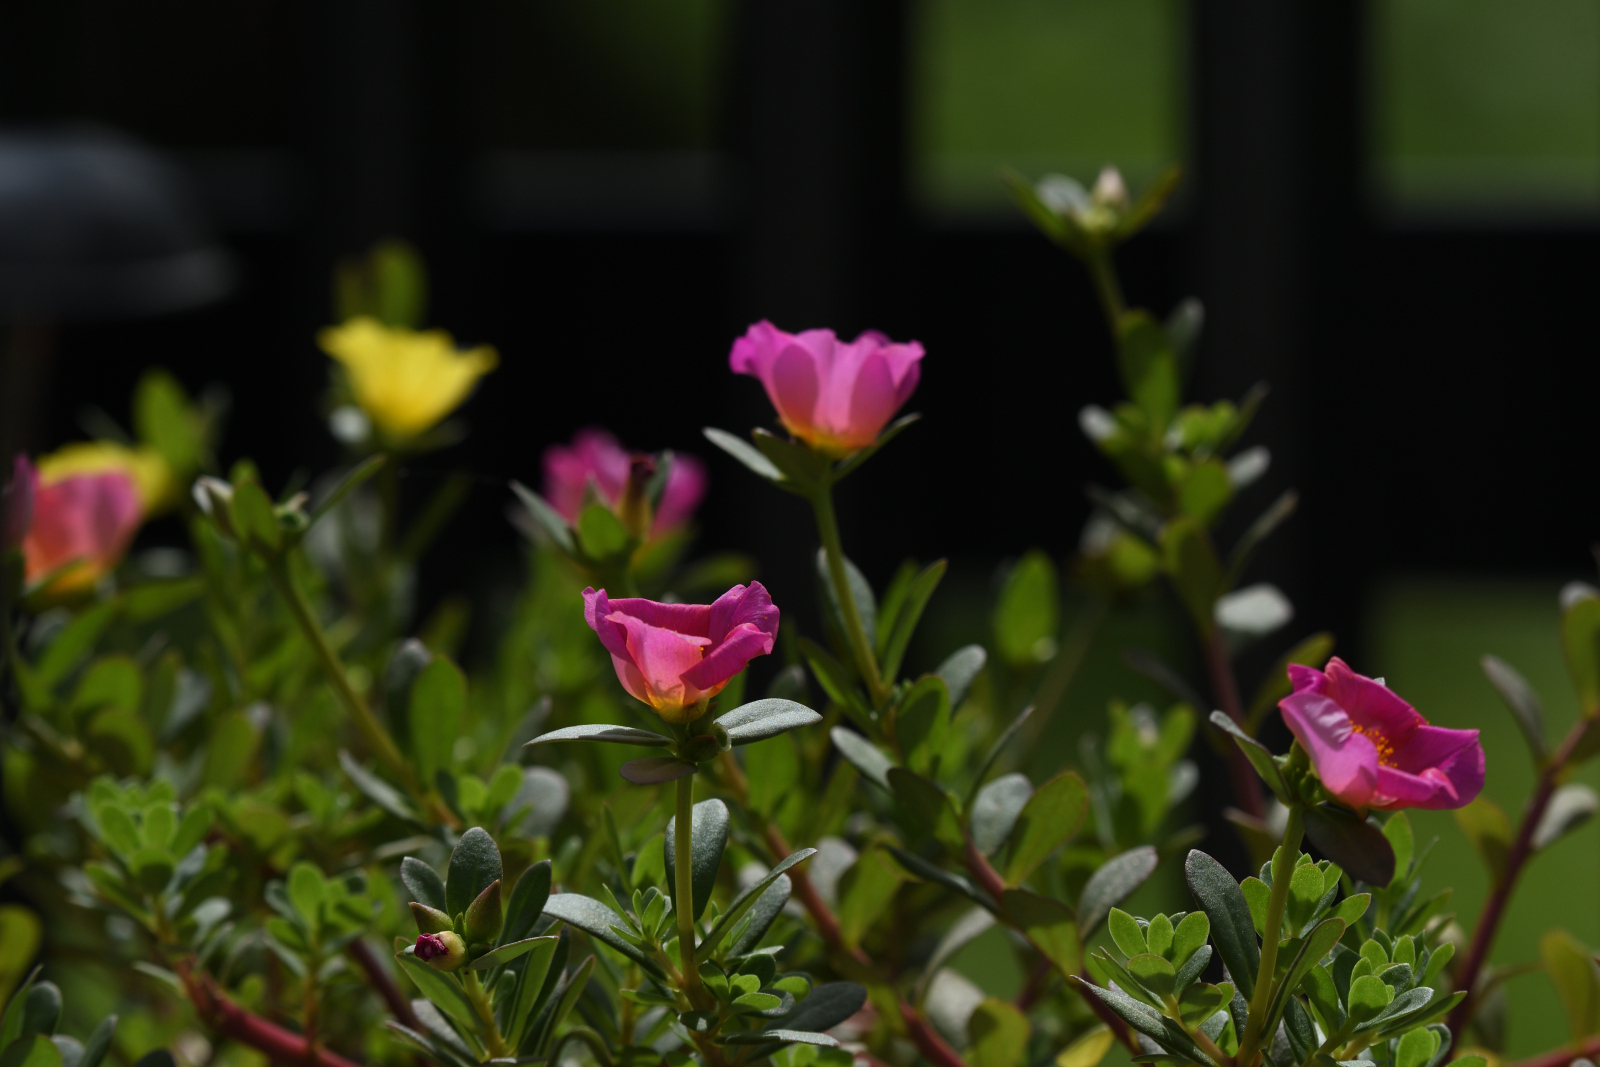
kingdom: Plantae
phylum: Tracheophyta
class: Magnoliopsida
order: Caryophyllales
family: Portulacaceae
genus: Portulaca
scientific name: Portulaca umbraticola
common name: Wingpod purslane
